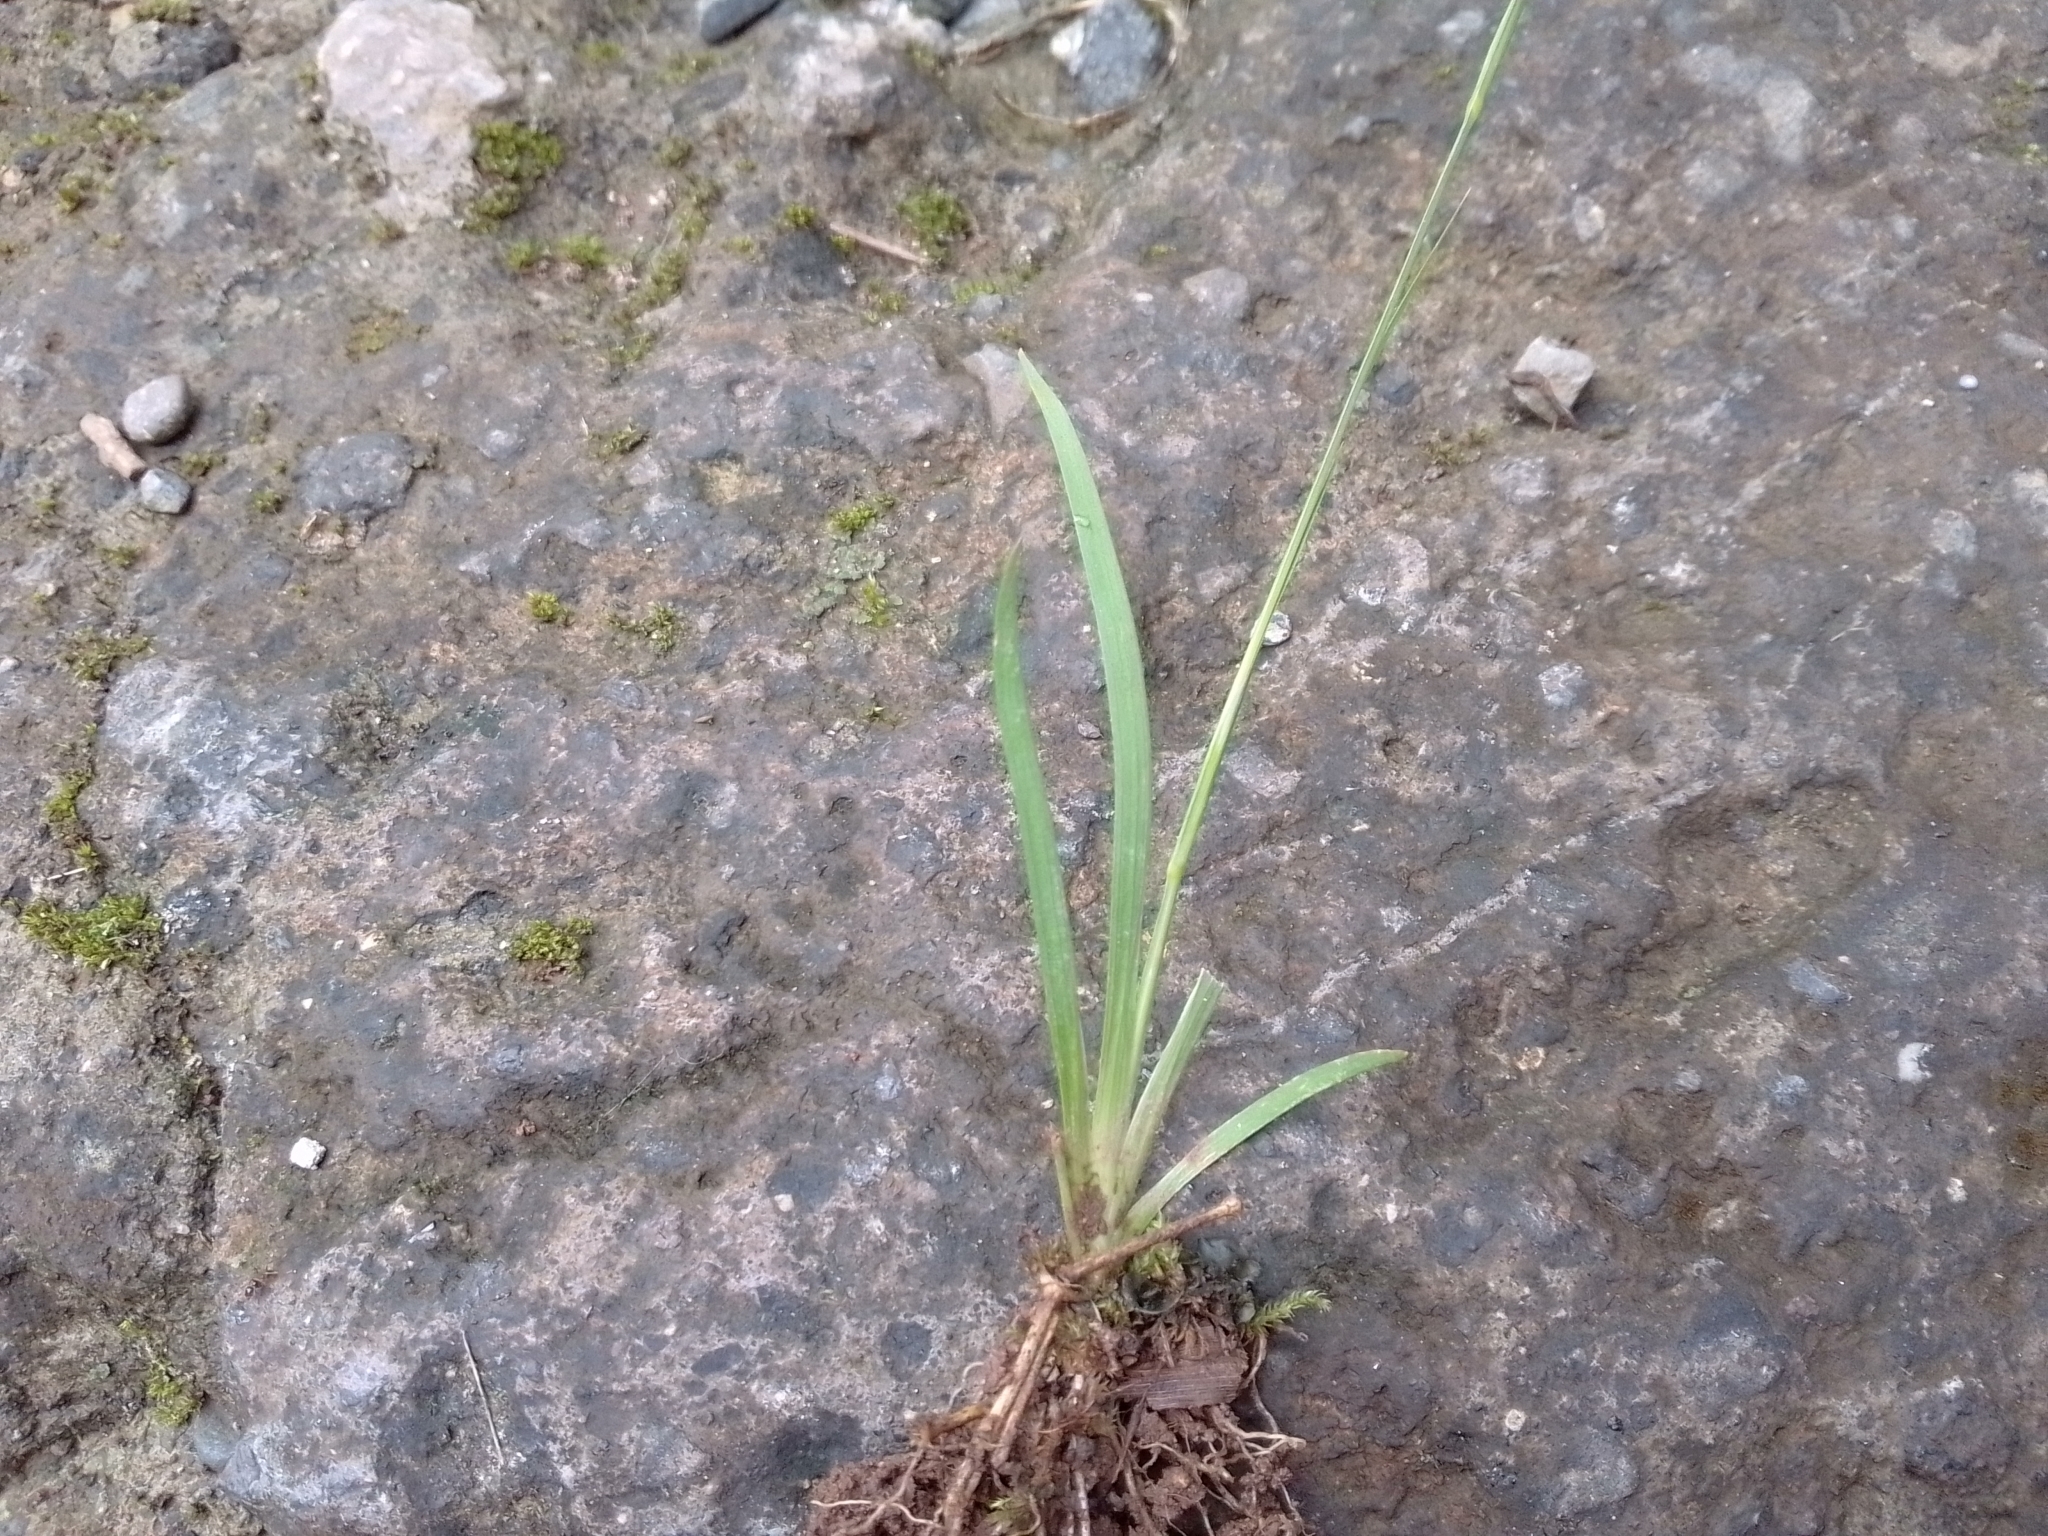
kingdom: Plantae
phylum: Tracheophyta
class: Liliopsida
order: Asparagales
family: Iridaceae
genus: Sisyrinchium
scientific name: Sisyrinchium micranthum
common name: Bermuda pigroot
